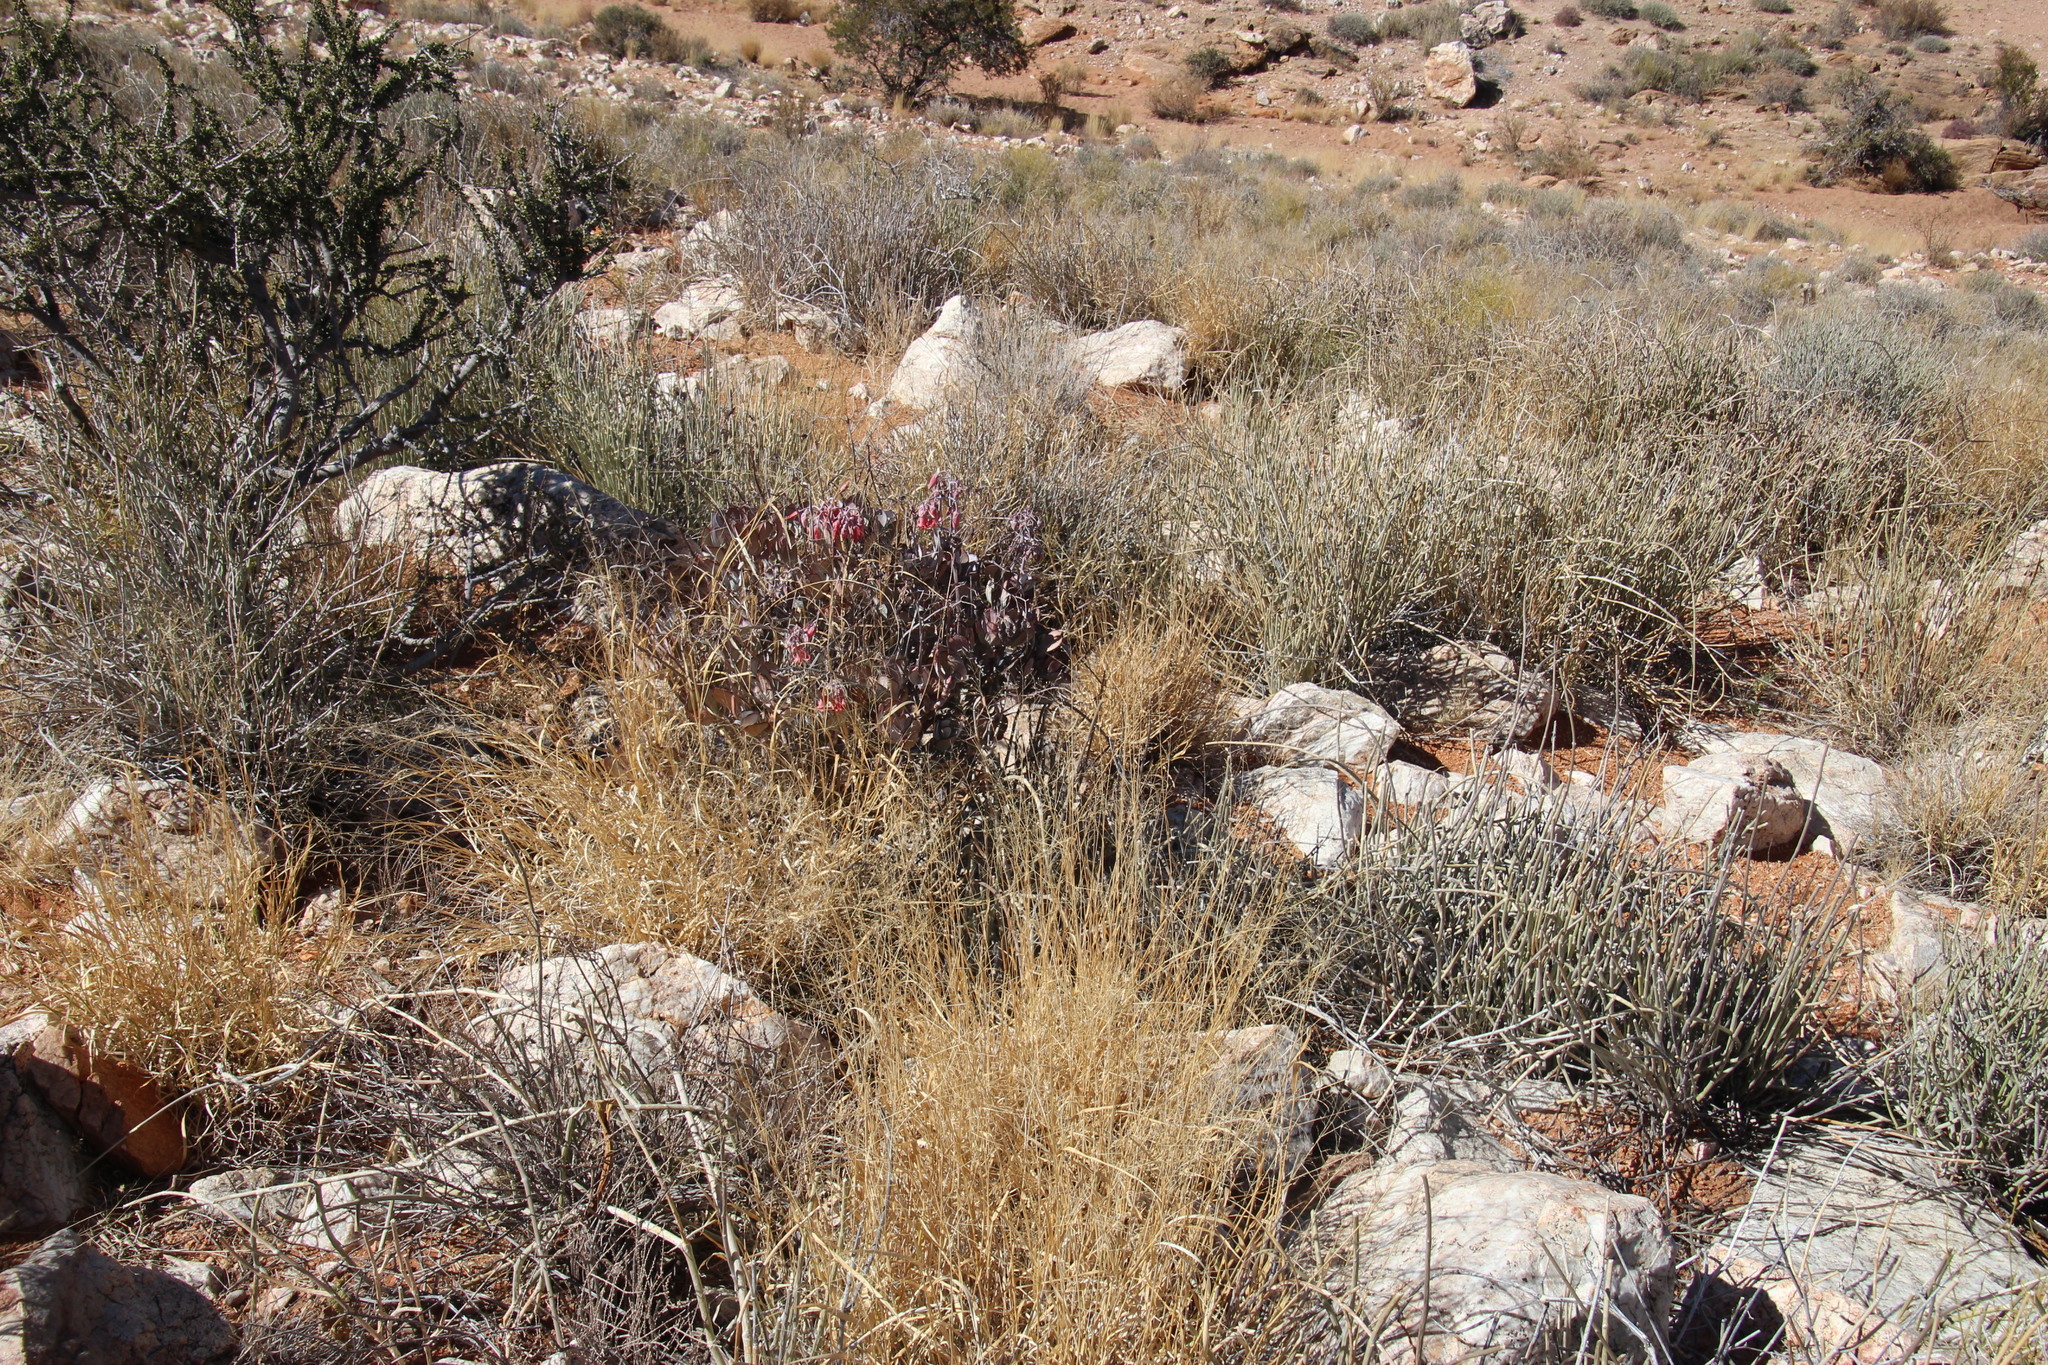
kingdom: Plantae
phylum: Tracheophyta
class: Magnoliopsida
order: Saxifragales
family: Crassulaceae
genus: Cotyledon
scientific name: Cotyledon orbiculata
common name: Pig's ear
